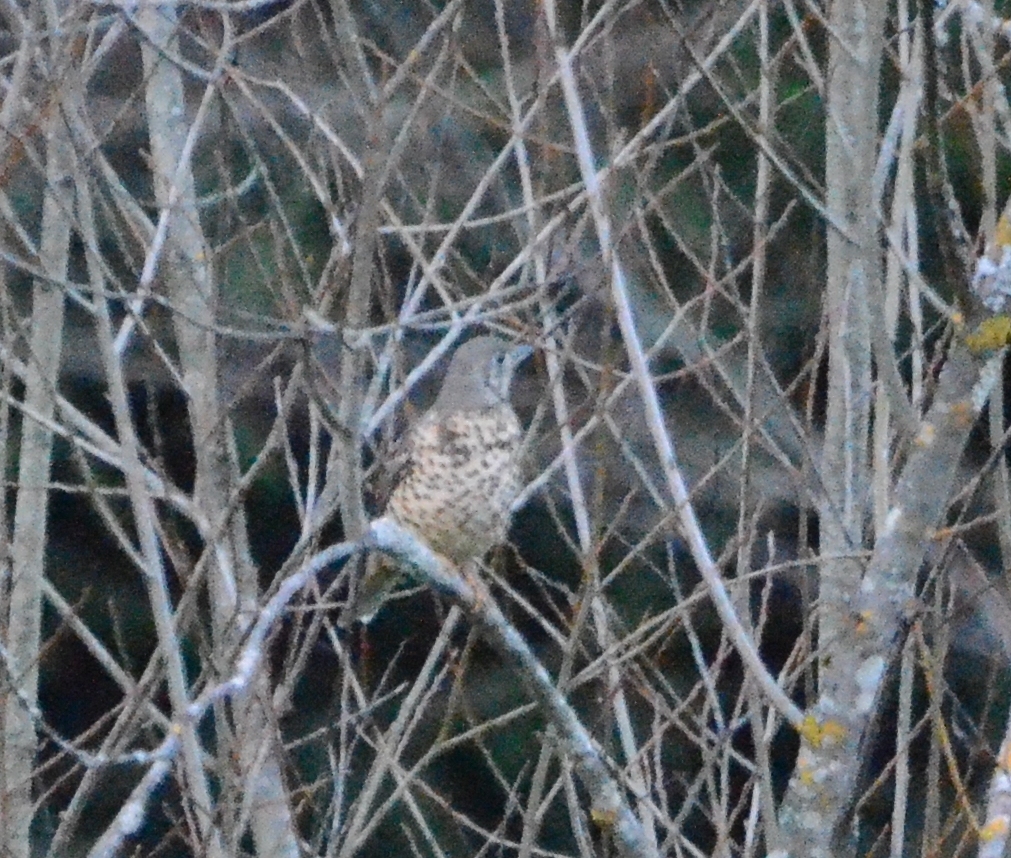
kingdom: Animalia
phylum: Chordata
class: Aves
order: Passeriformes
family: Turdidae
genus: Turdus
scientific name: Turdus viscivorus
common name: Mistle thrush
